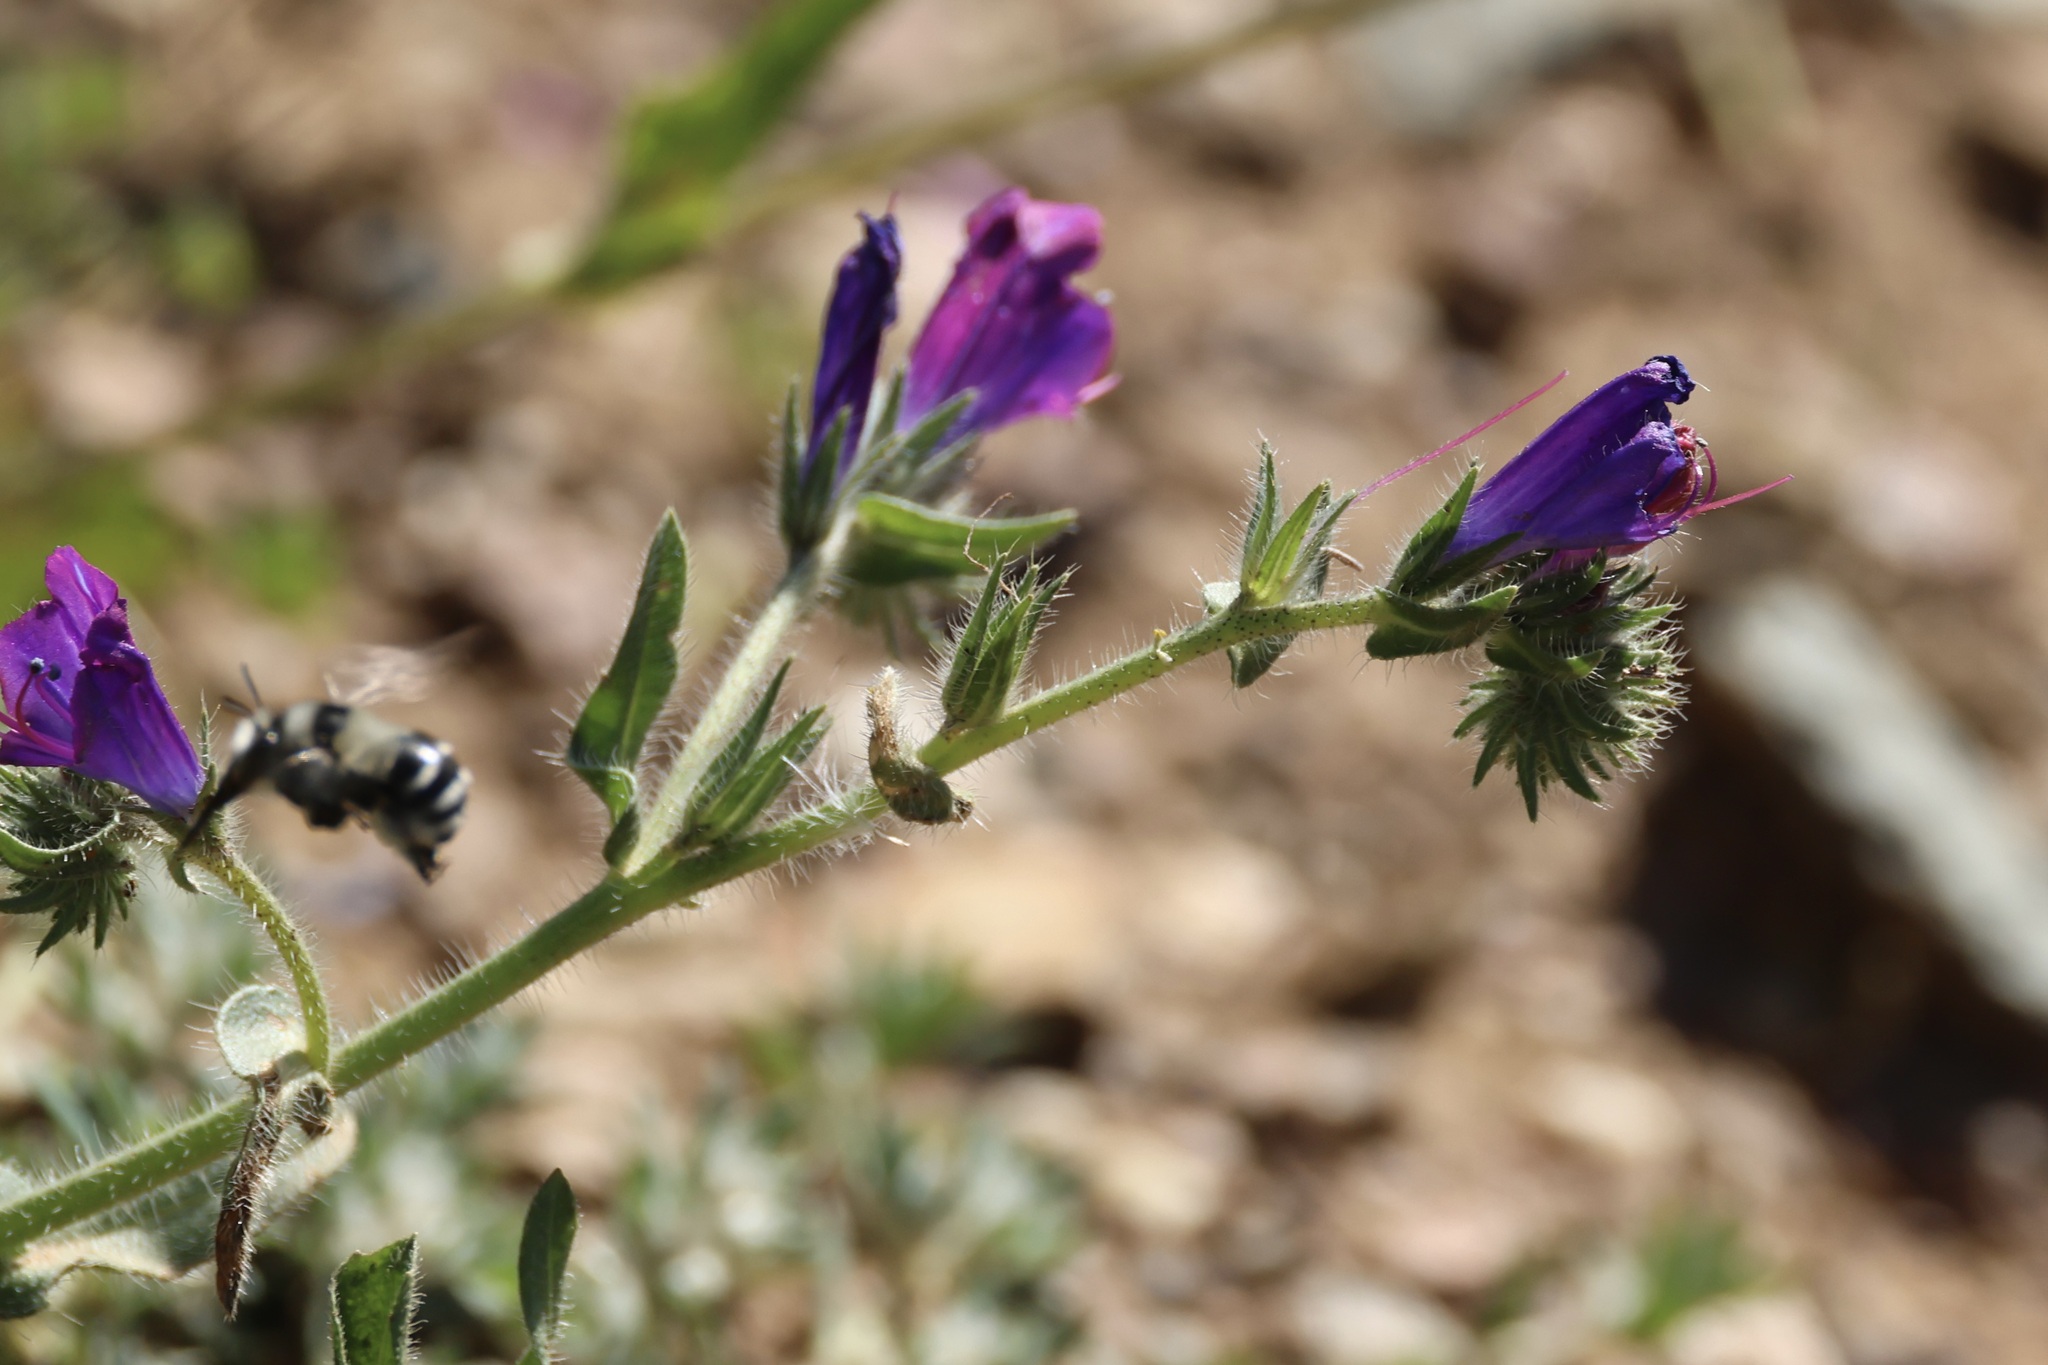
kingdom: Plantae
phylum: Tracheophyta
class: Magnoliopsida
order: Boraginales
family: Boraginaceae
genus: Echium
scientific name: Echium plantagineum
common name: Purple viper's-bugloss
